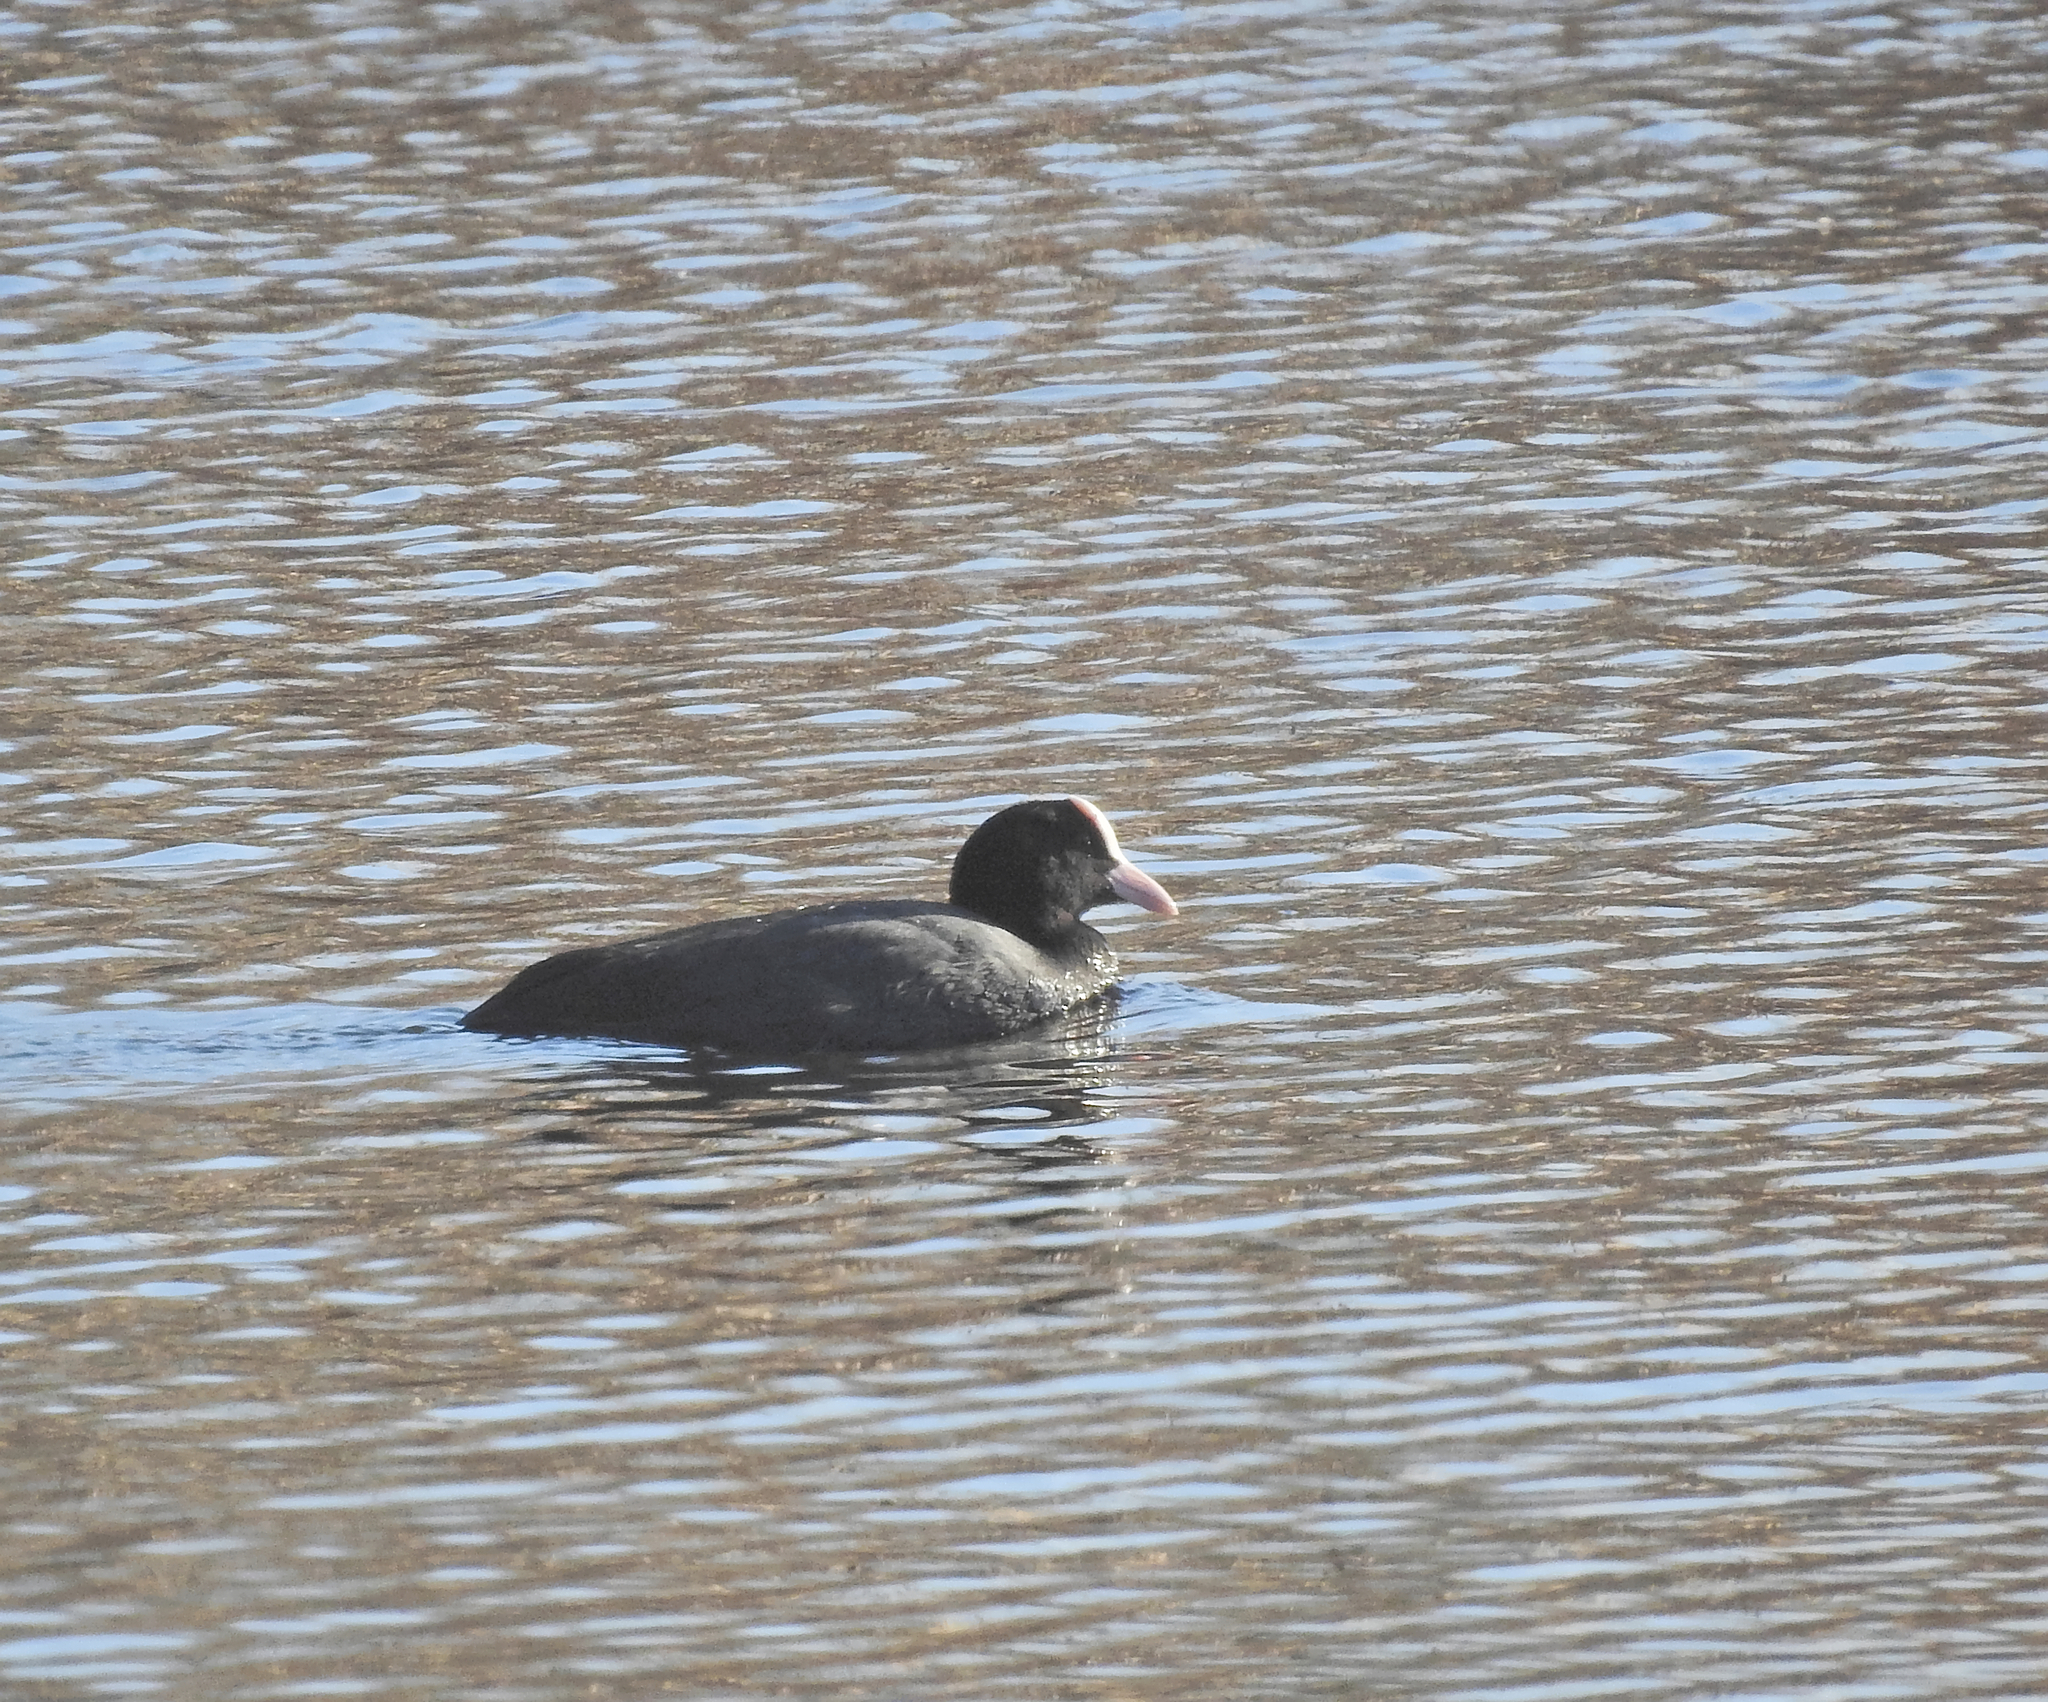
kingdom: Animalia
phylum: Chordata
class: Aves
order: Gruiformes
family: Rallidae
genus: Fulica
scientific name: Fulica atra
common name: Eurasian coot
